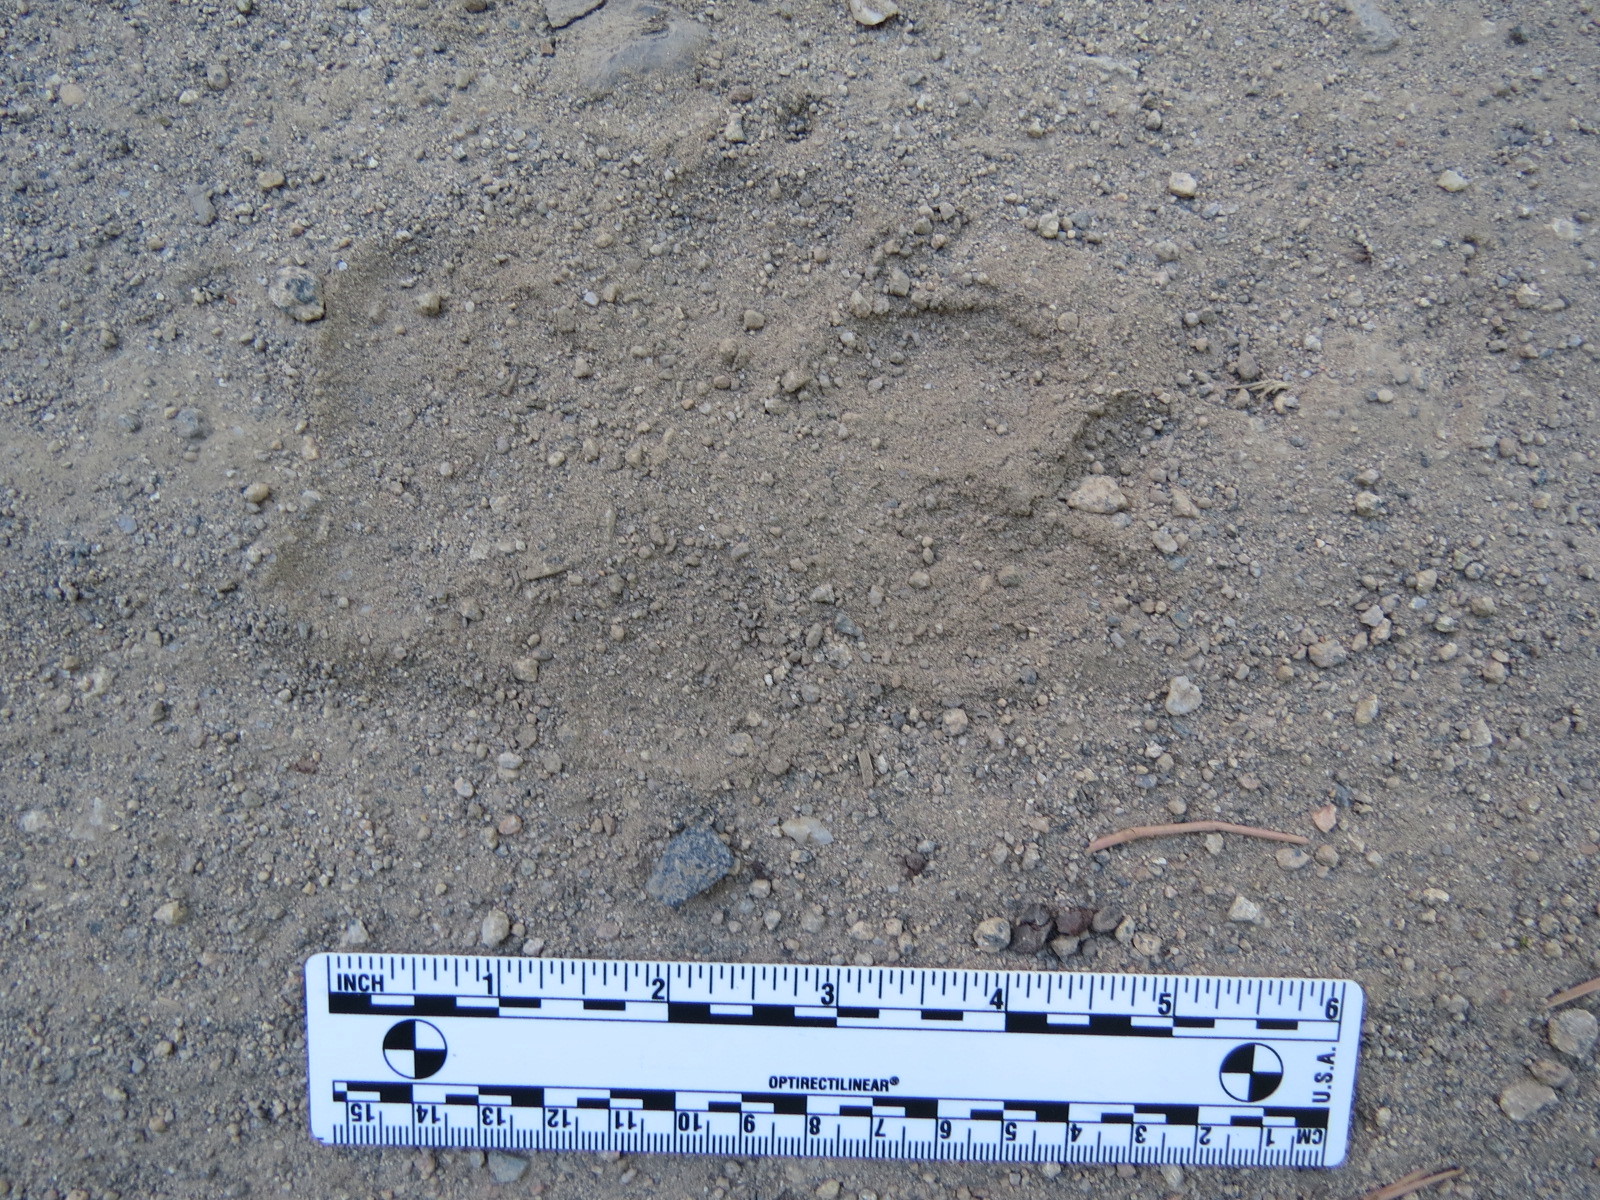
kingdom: Animalia
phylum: Chordata
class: Mammalia
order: Carnivora
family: Canidae
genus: Canis
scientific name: Canis lupus
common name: Gray wolf
